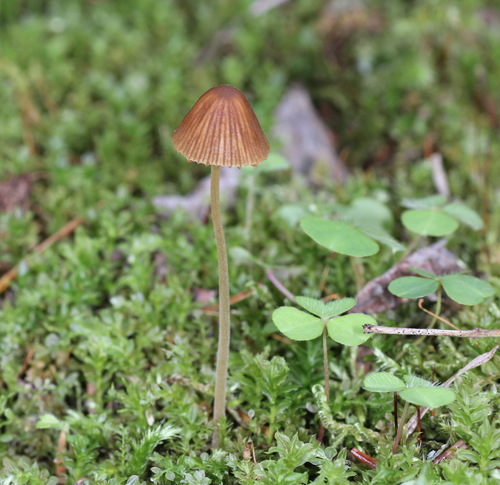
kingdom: Fungi
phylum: Basidiomycota
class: Agaricomycetes
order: Agaricales
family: Bolbitiaceae
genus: Conocybe
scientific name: Conocybe filipes
